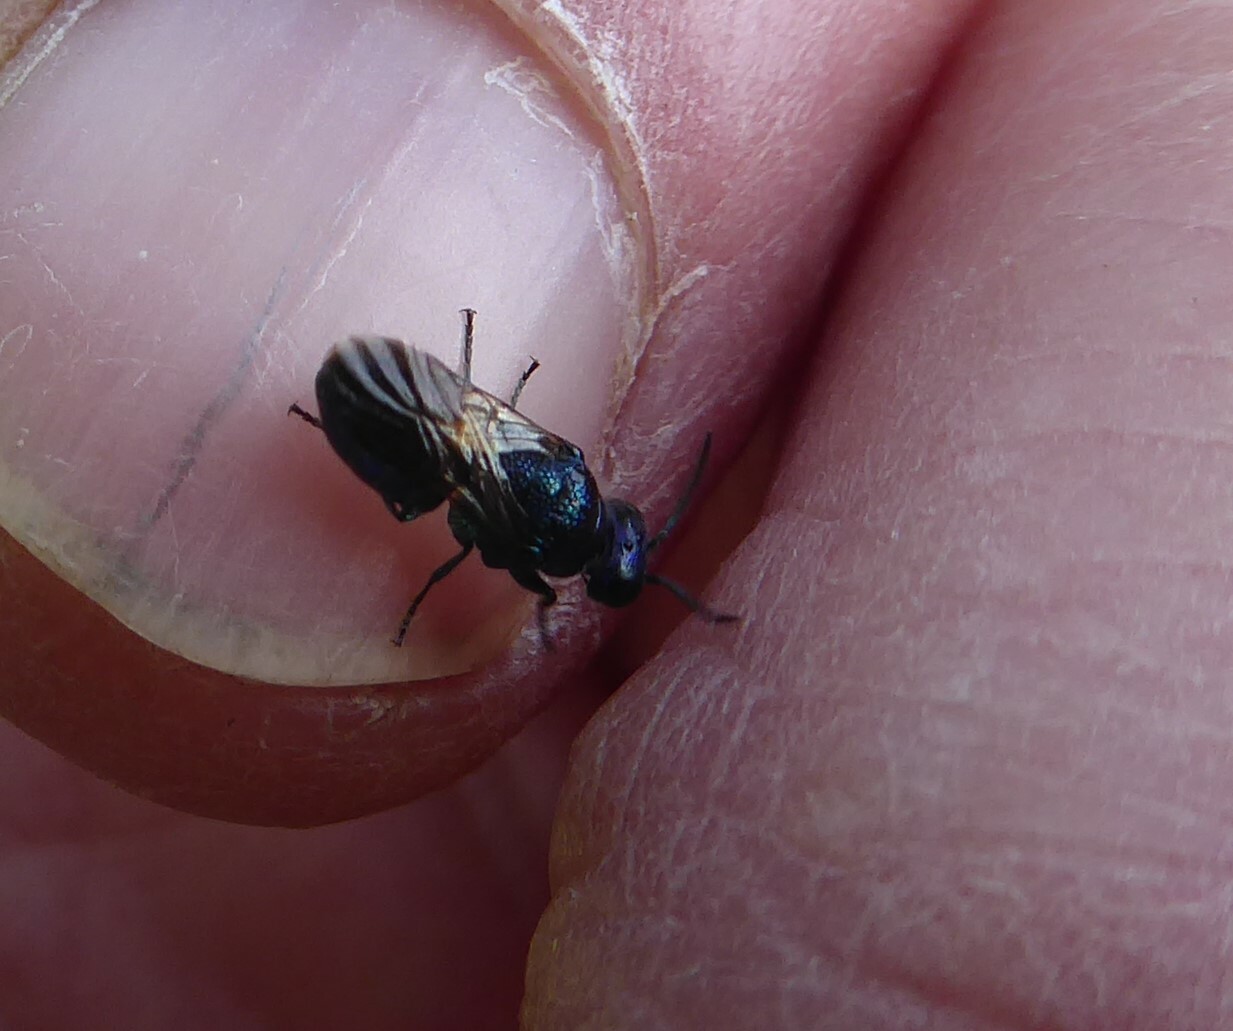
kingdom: Animalia
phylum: Arthropoda
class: Insecta
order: Hymenoptera
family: Chrysididae
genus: Pseudomalus
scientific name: Pseudomalus violaceus
